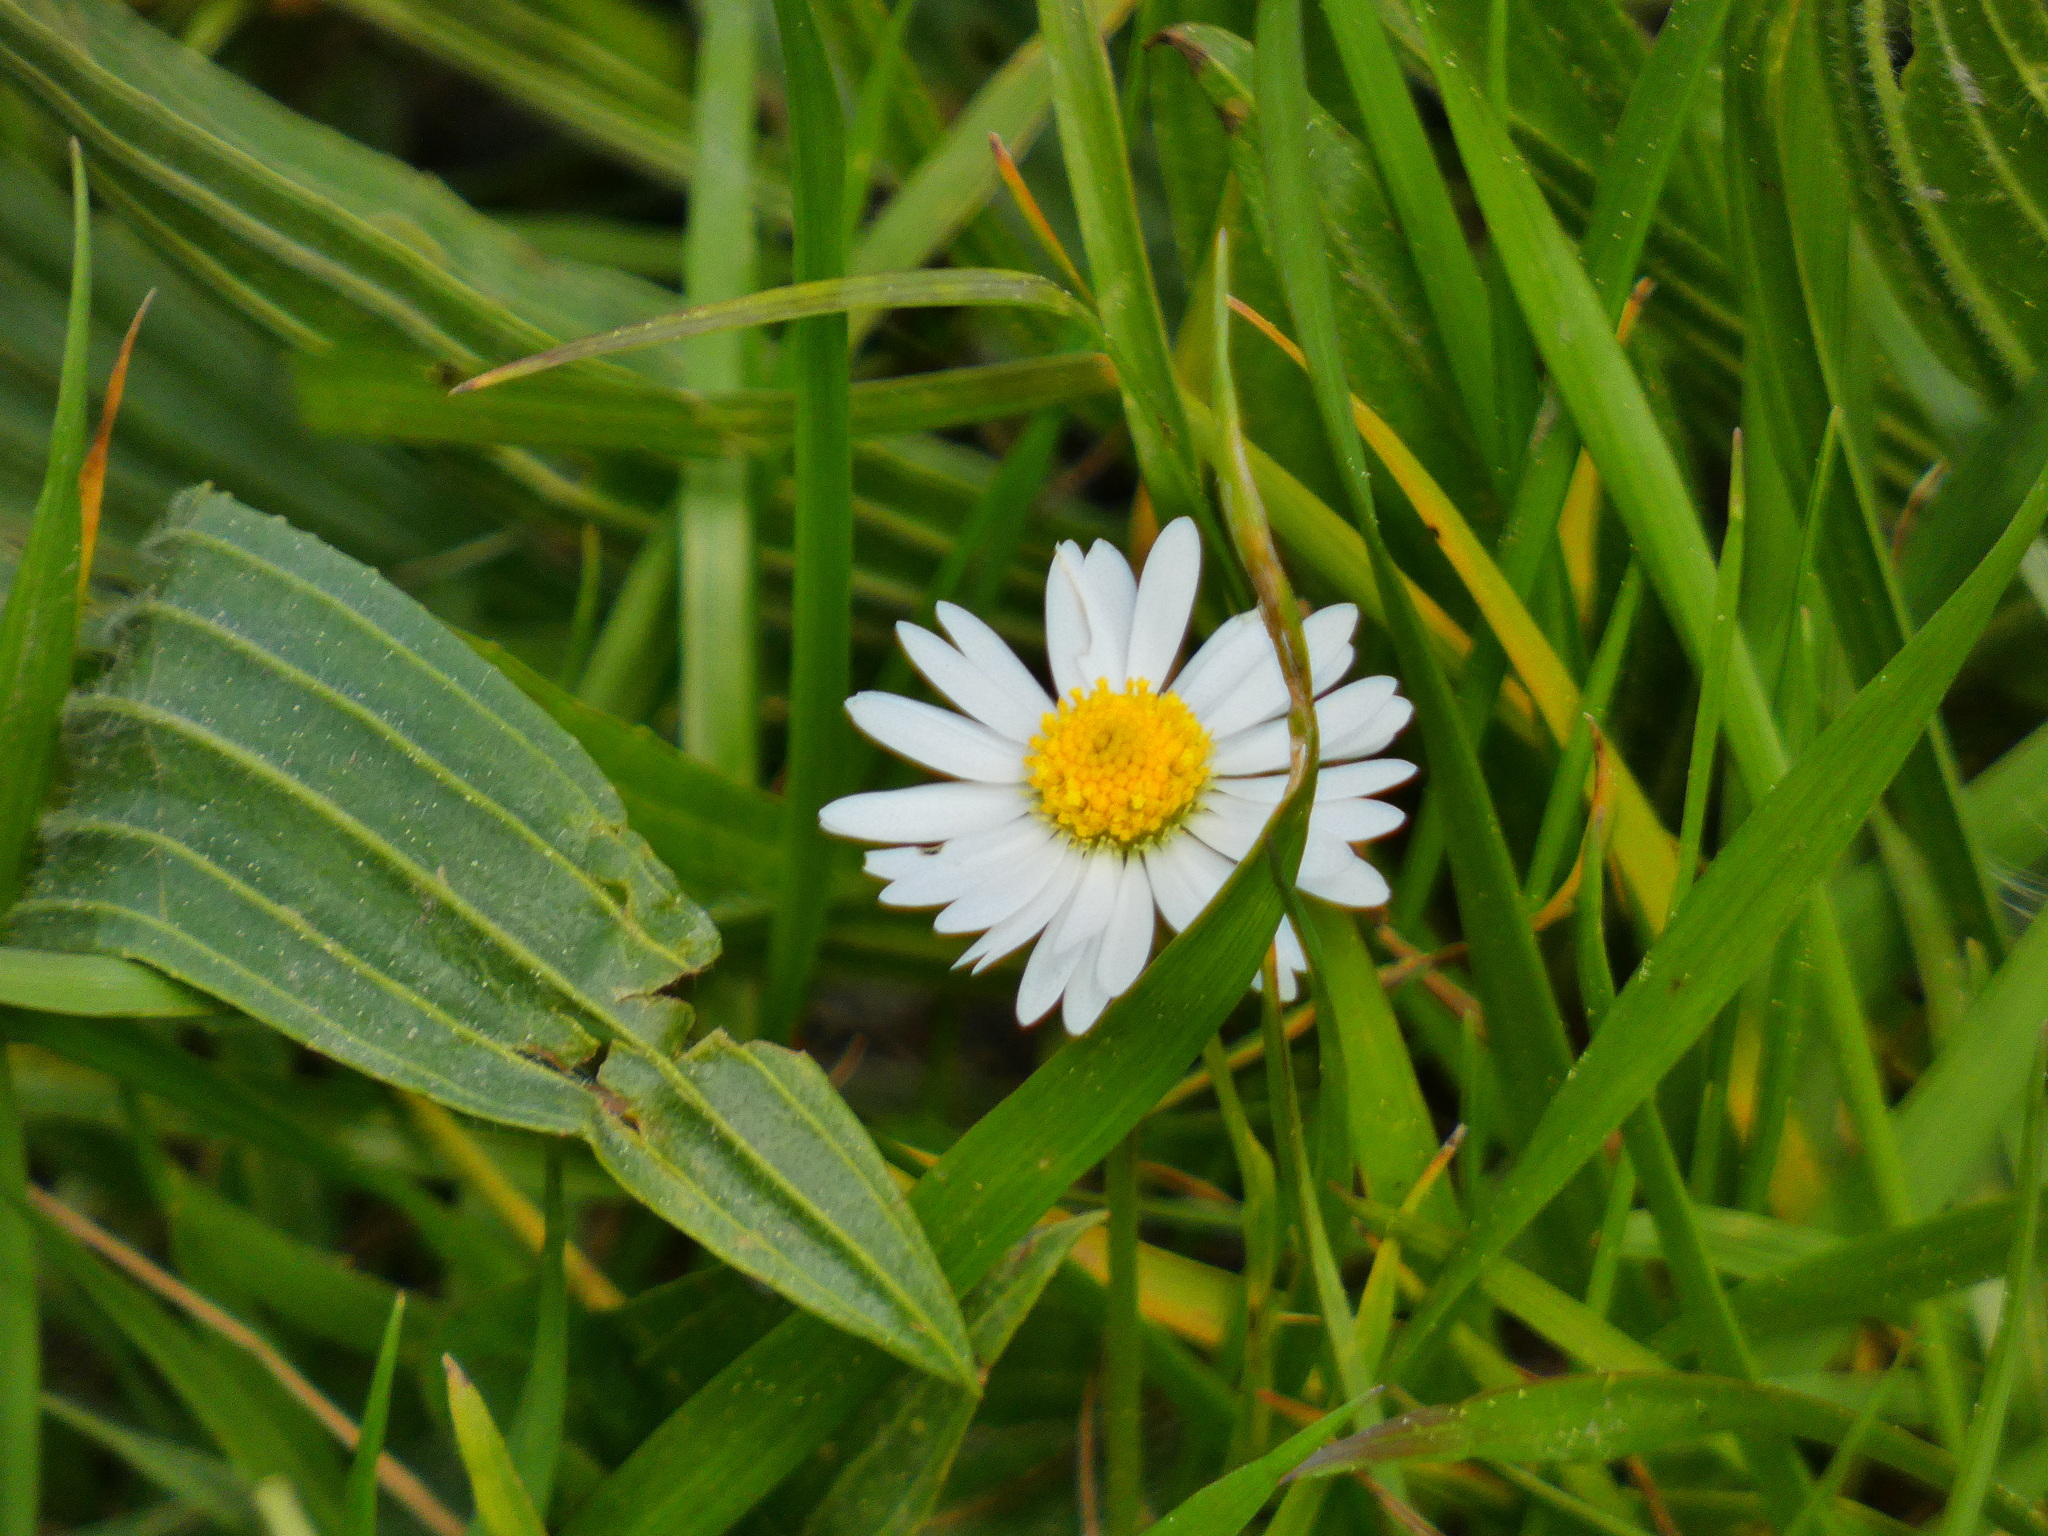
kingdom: Plantae
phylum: Tracheophyta
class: Magnoliopsida
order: Asterales
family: Asteraceae
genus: Bellis
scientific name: Bellis perennis
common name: Lawndaisy
